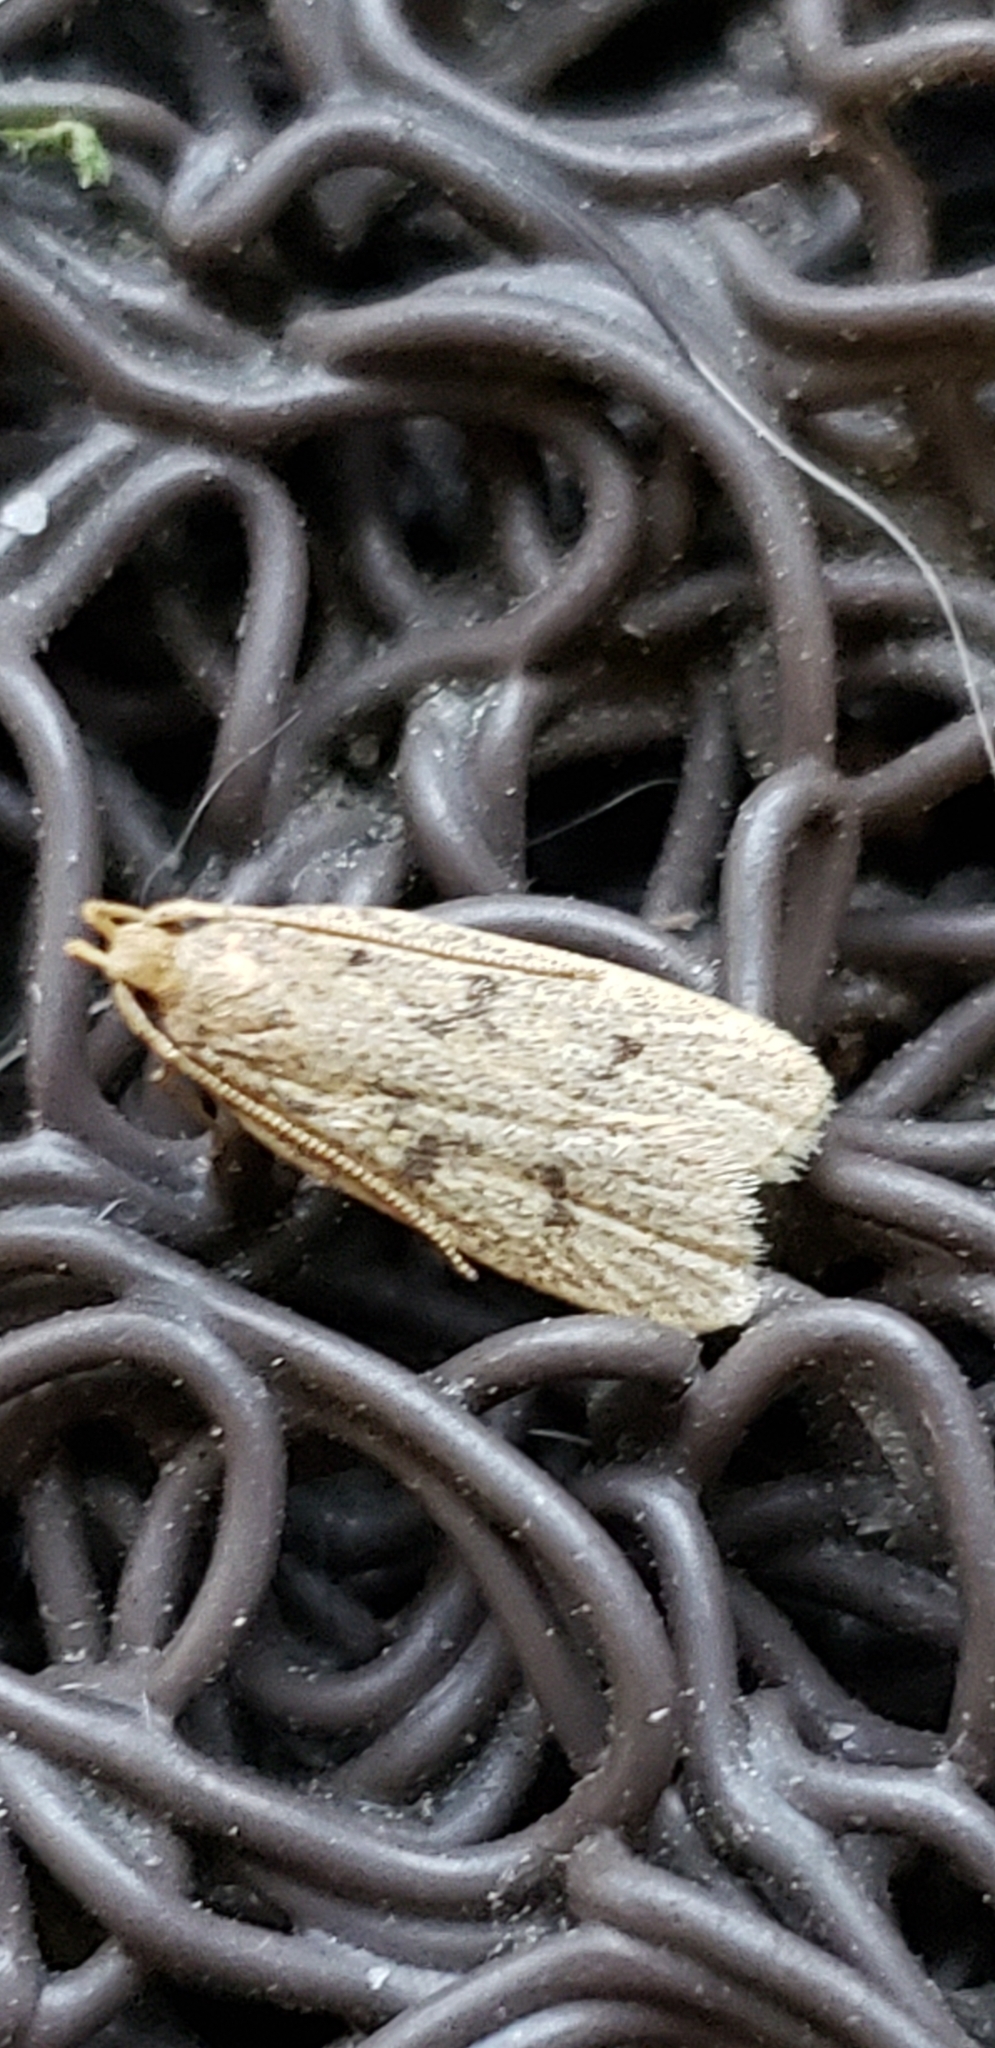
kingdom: Animalia
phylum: Arthropoda
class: Insecta
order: Lepidoptera
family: Autostichidae
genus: Glyphidocera
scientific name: Glyphidocera septentrionella
